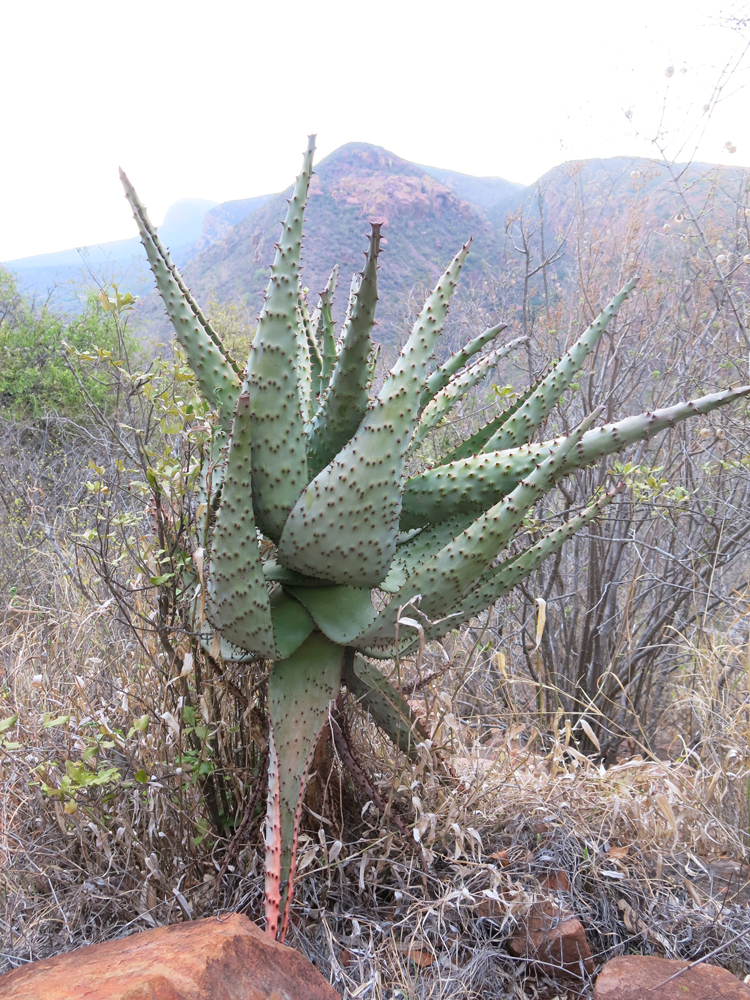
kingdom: Plantae
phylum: Tracheophyta
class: Liliopsida
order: Asparagales
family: Asphodelaceae
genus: Aloe
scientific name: Aloe marlothii
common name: Flat-flowered aloe
